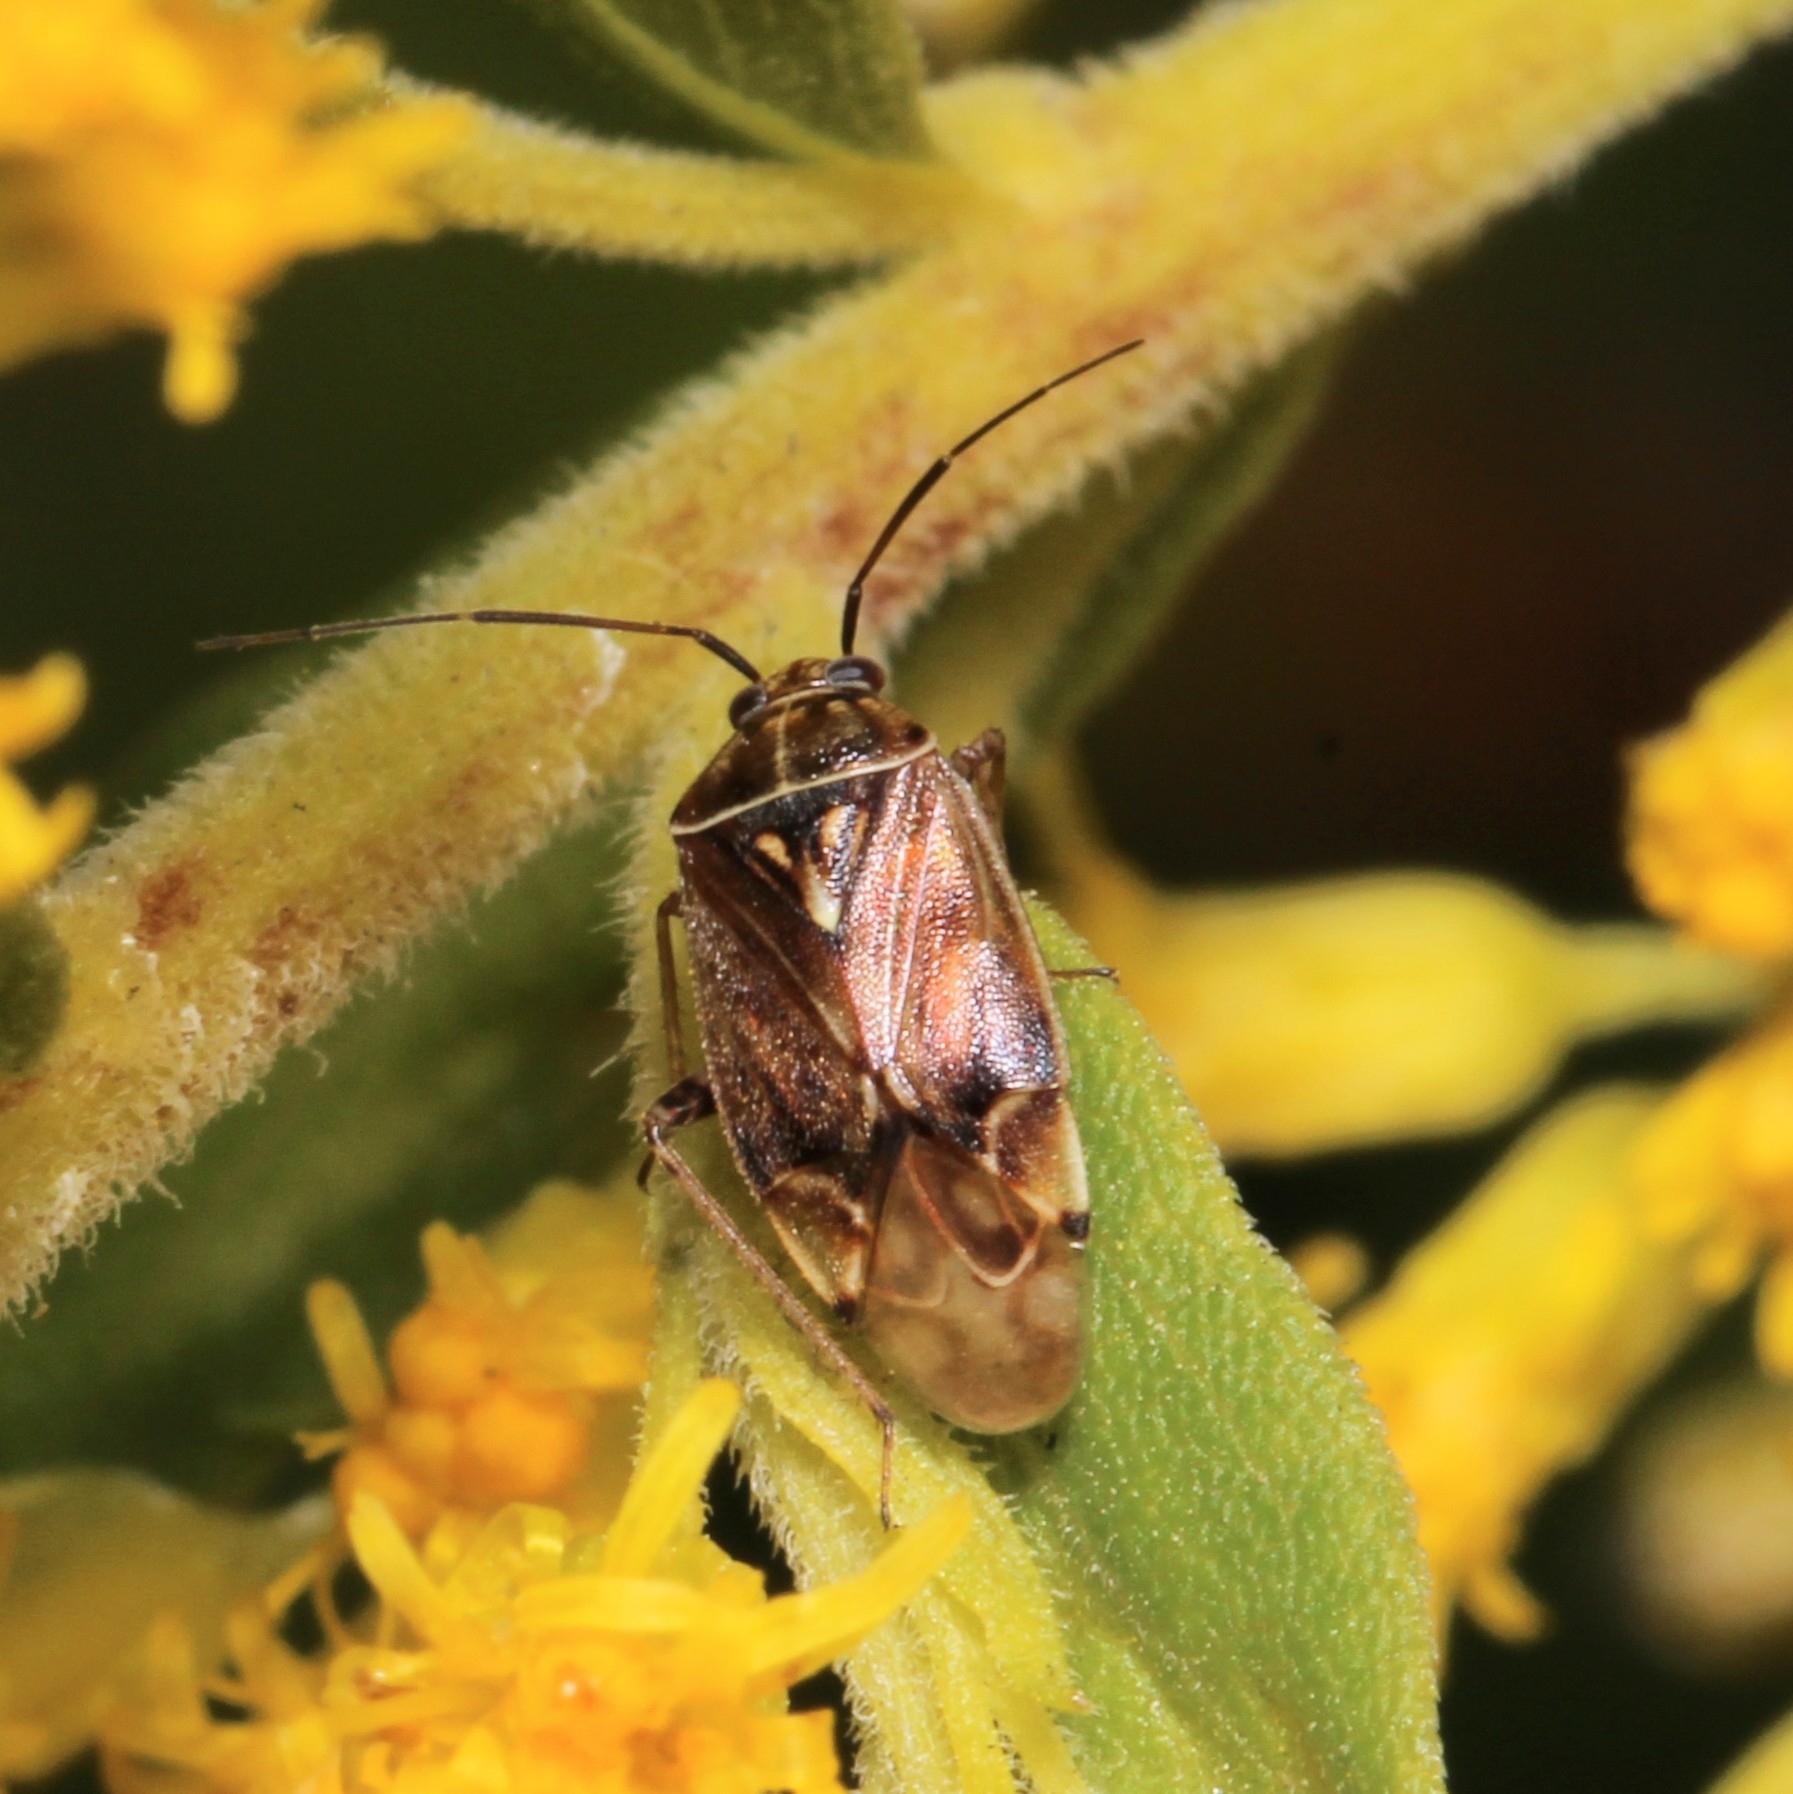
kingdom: Animalia
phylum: Arthropoda
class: Insecta
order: Hemiptera
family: Miridae
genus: Lygus
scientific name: Lygus lineolaris
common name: North american tarnished plant bug
